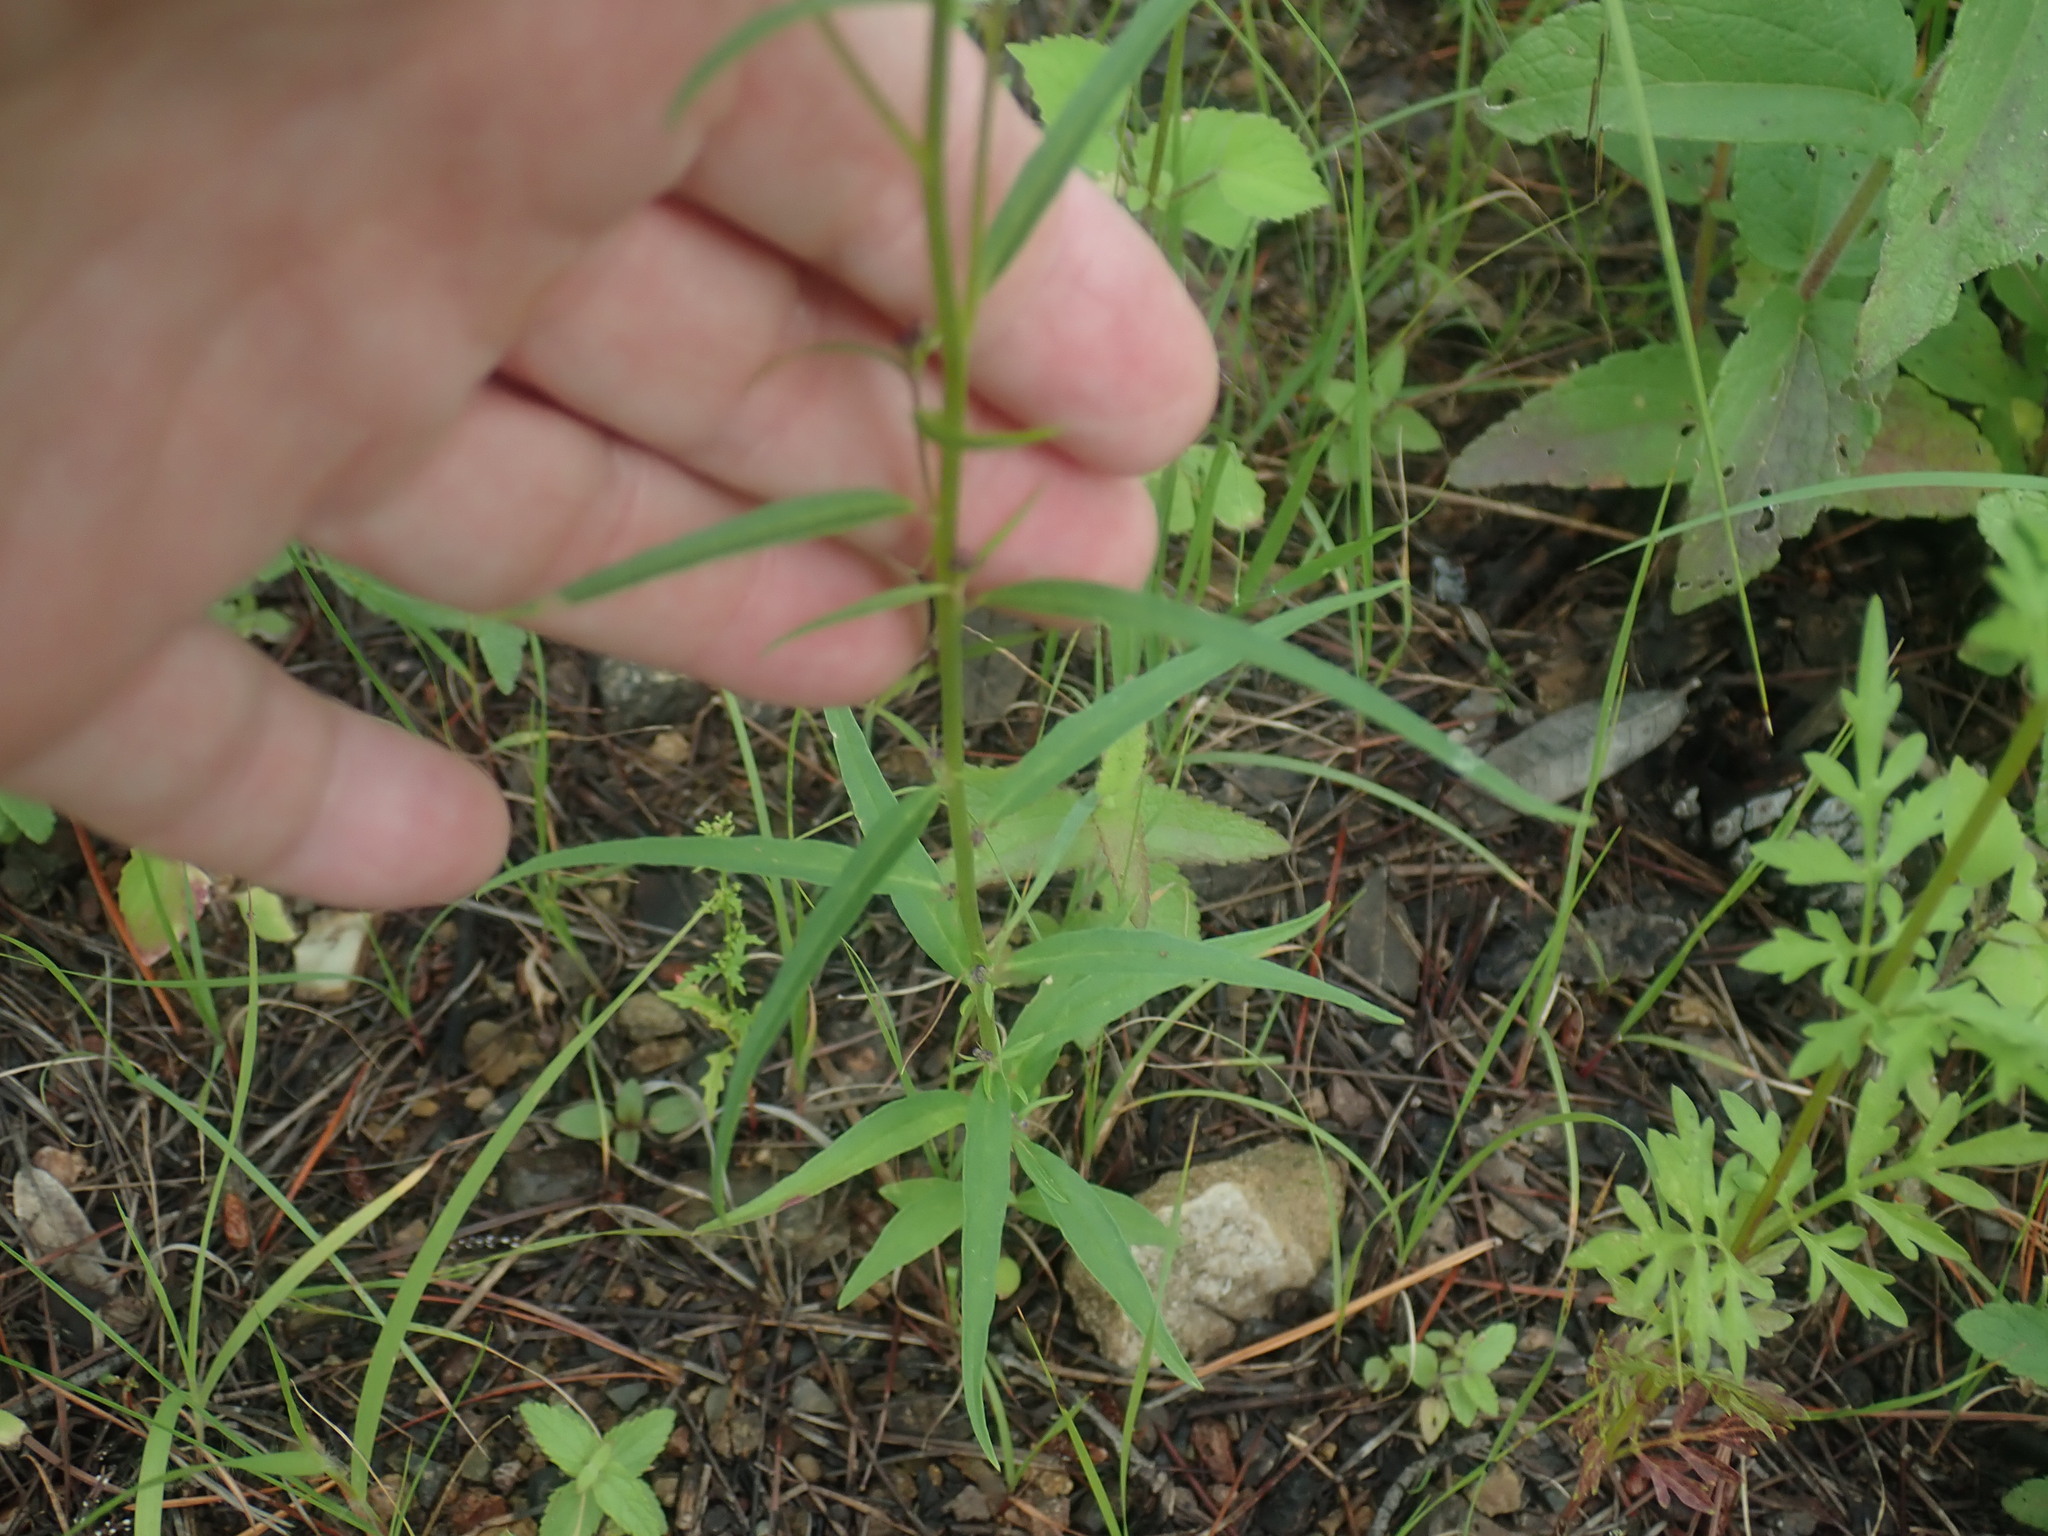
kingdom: Plantae
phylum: Tracheophyta
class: Magnoliopsida
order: Fabales
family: Polygalaceae
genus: Monnina
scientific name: Monnina wrightii
